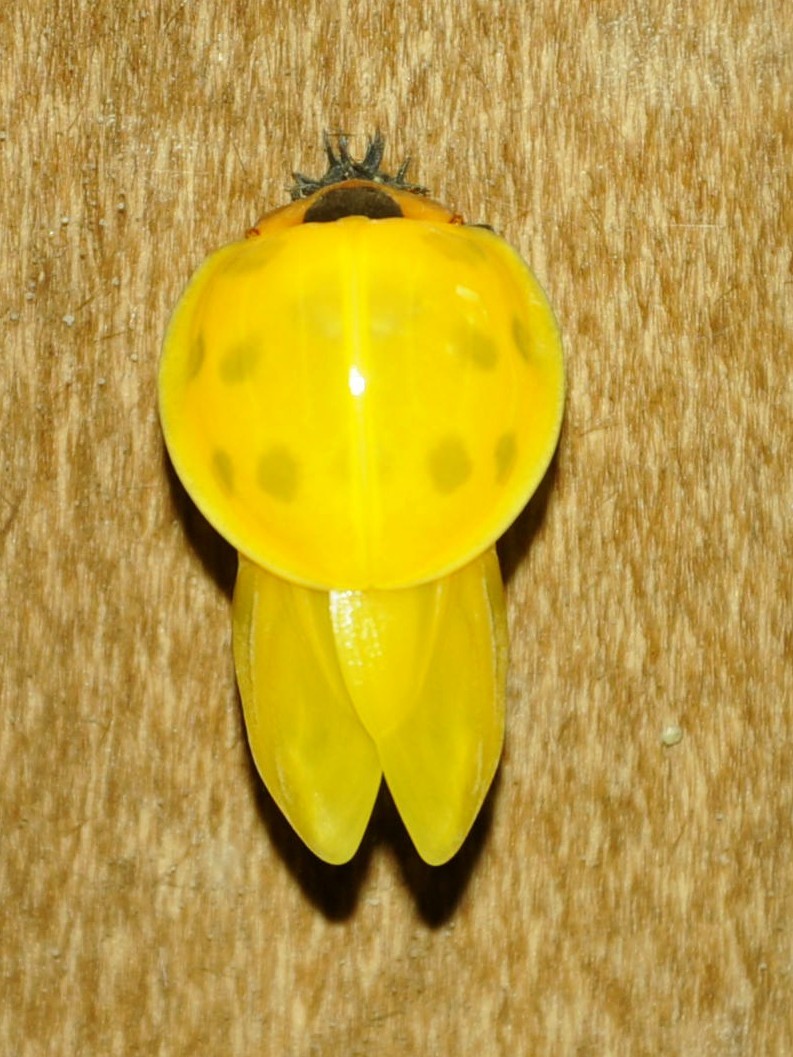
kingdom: Animalia
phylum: Arthropoda
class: Insecta
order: Coleoptera
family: Coccinellidae
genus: Synonycha
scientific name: Synonycha grandis
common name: Lady beetle
